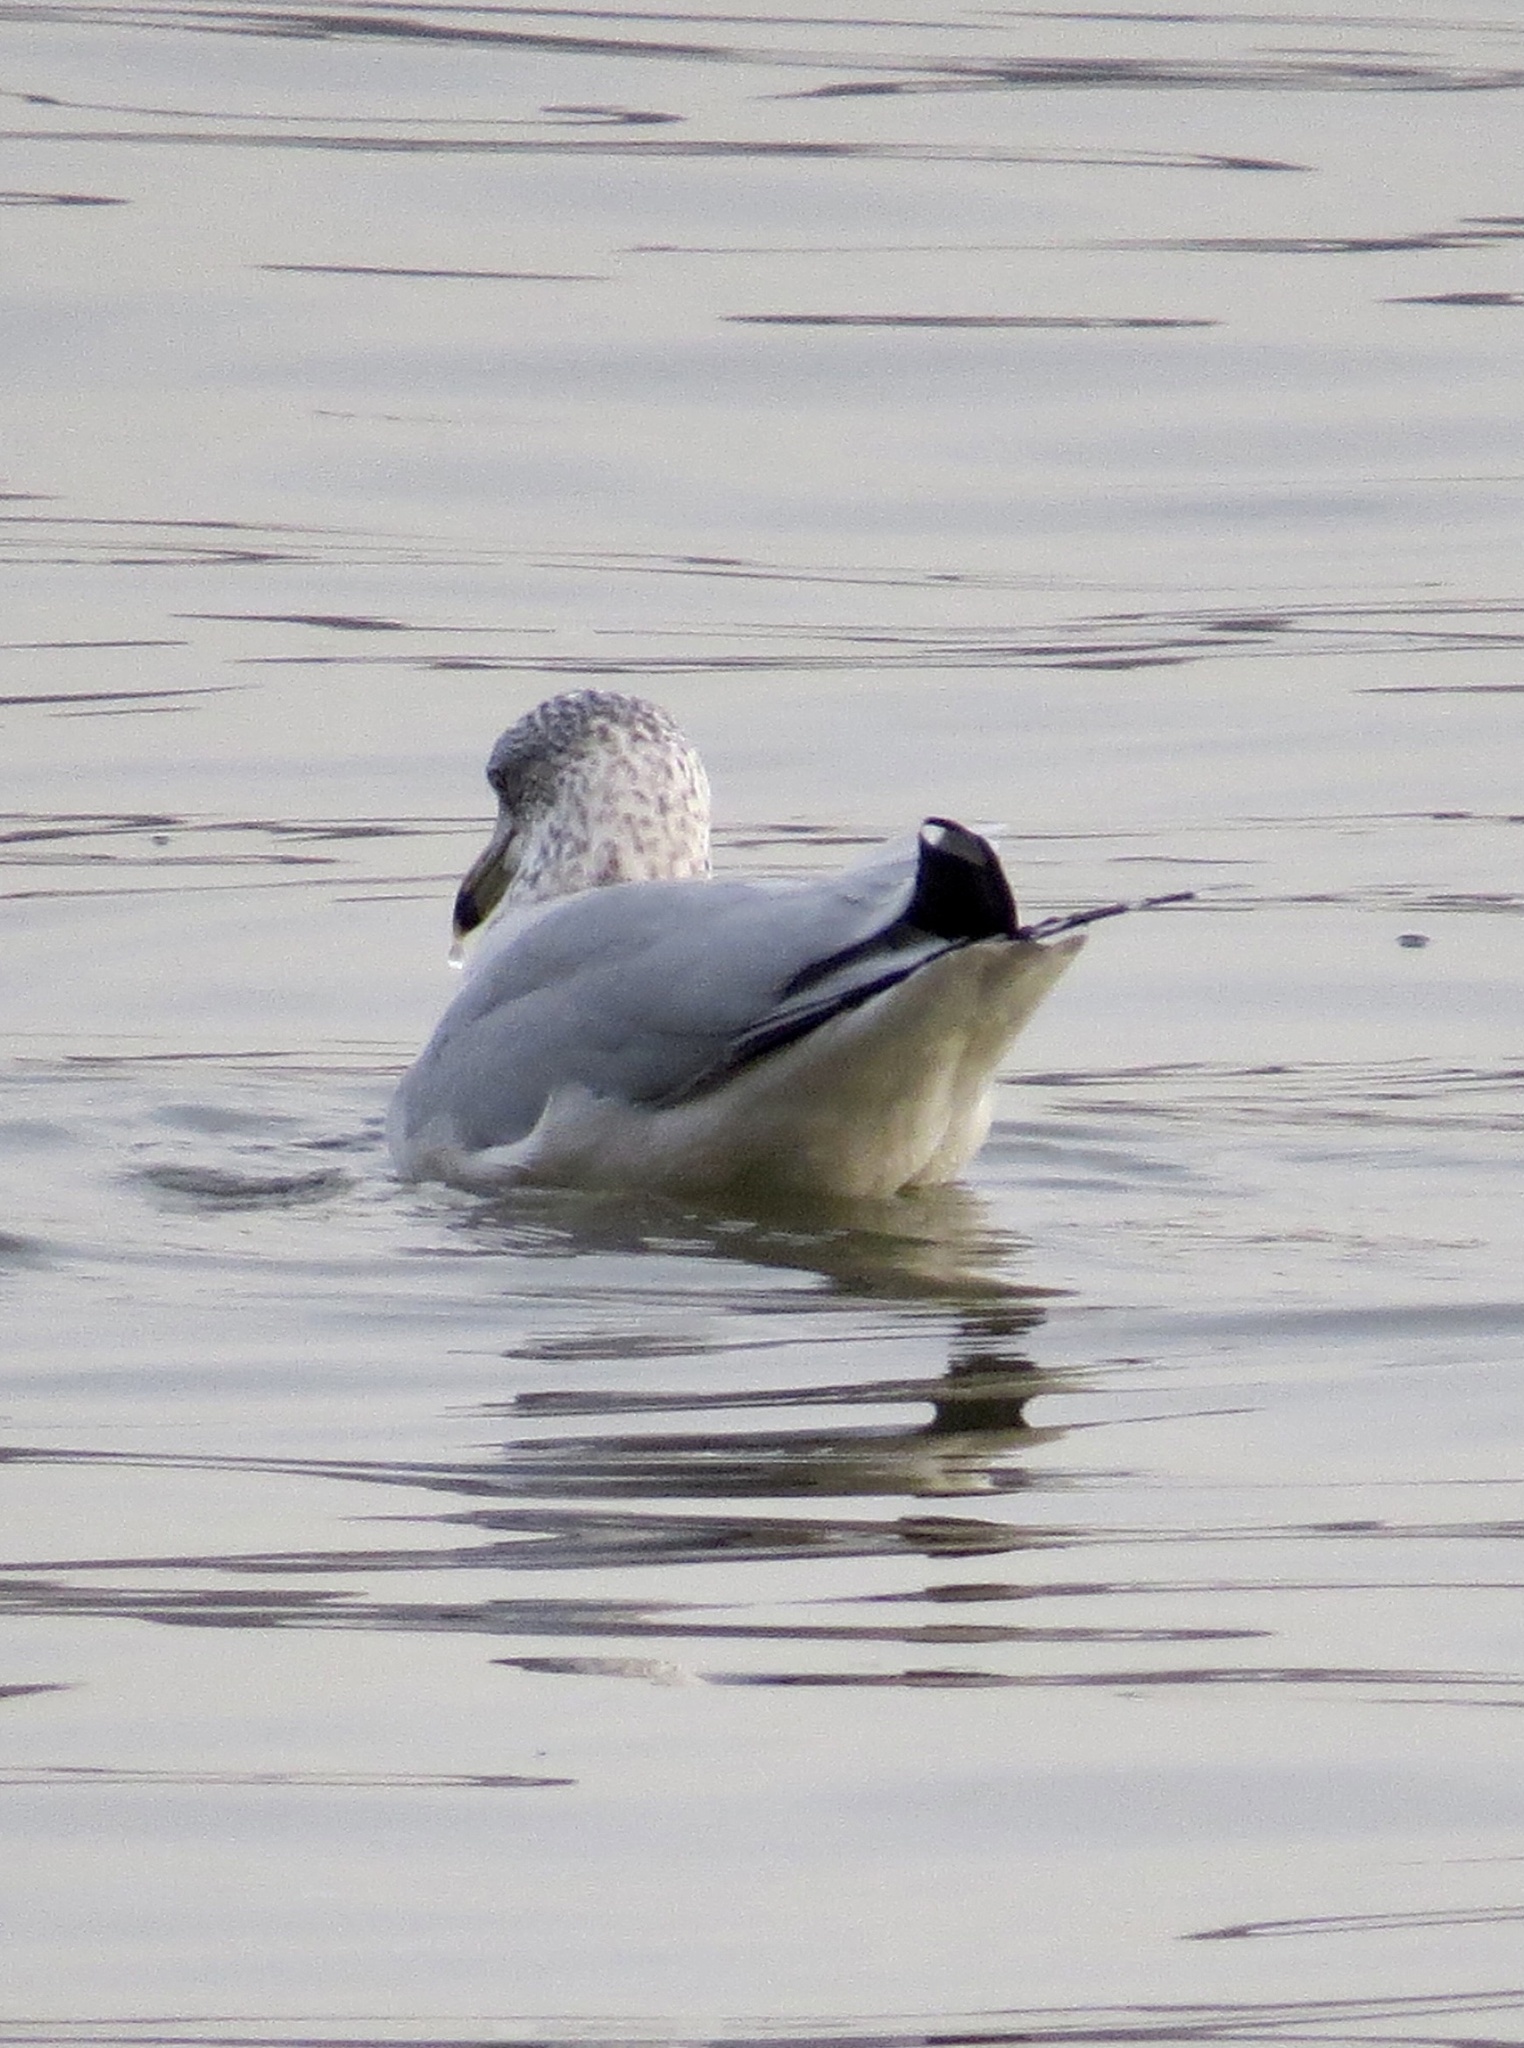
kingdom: Animalia
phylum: Chordata
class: Aves
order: Charadriiformes
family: Laridae
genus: Larus
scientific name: Larus delawarensis
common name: Ring-billed gull
